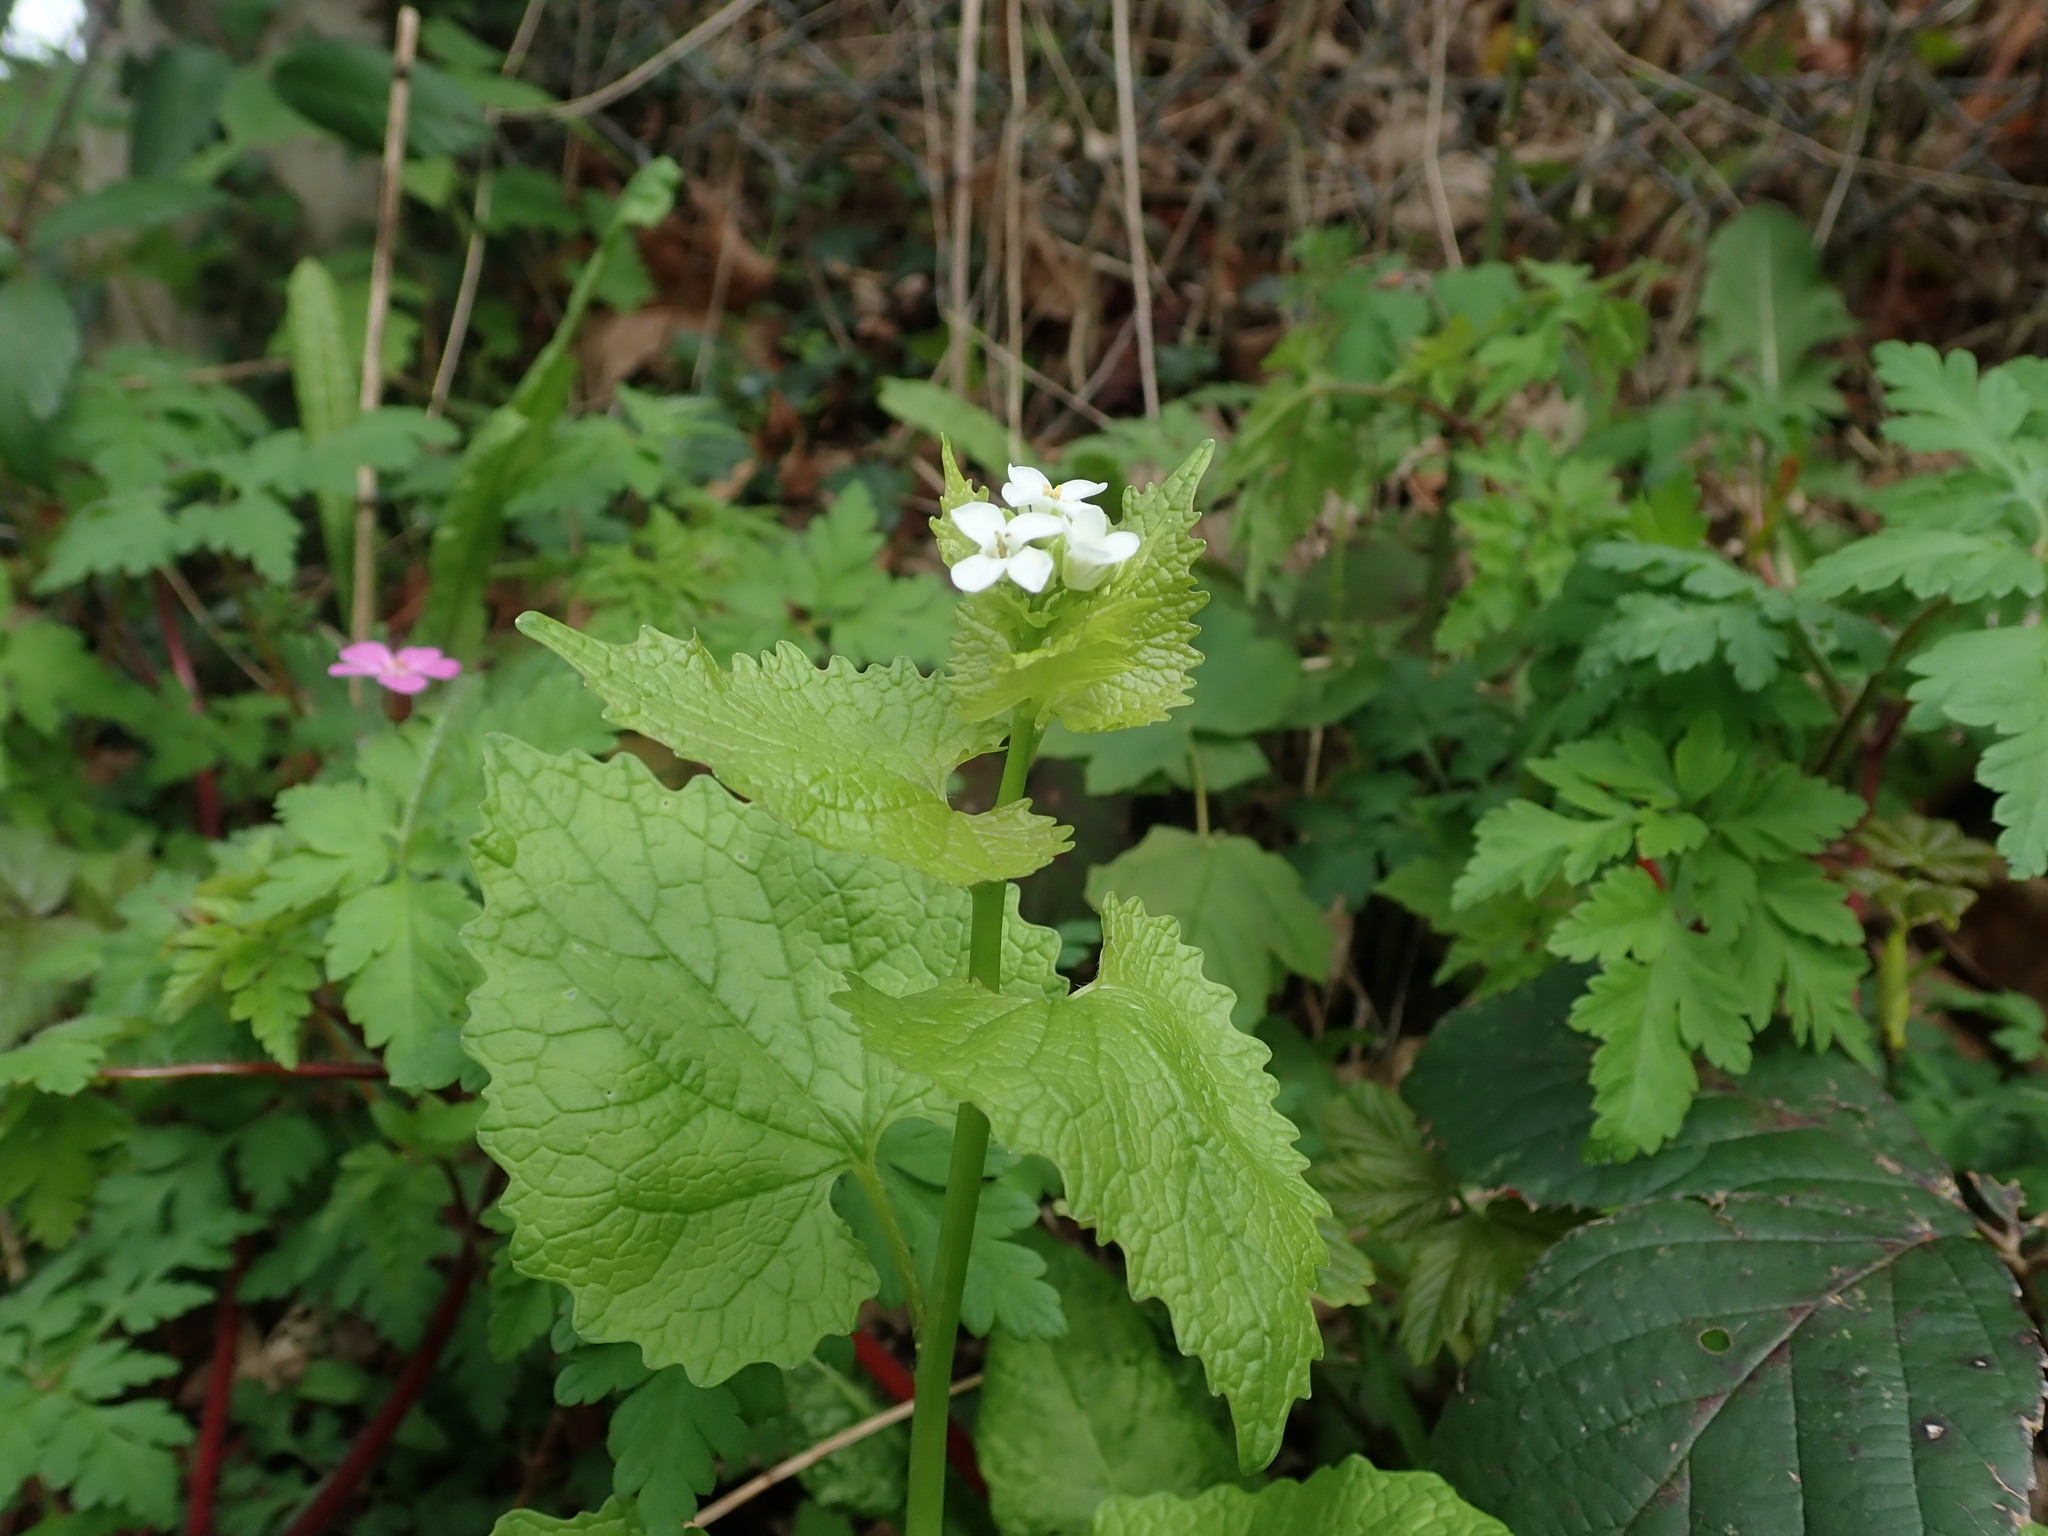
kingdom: Plantae
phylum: Tracheophyta
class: Magnoliopsida
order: Brassicales
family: Brassicaceae
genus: Alliaria
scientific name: Alliaria petiolata
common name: Garlic mustard
